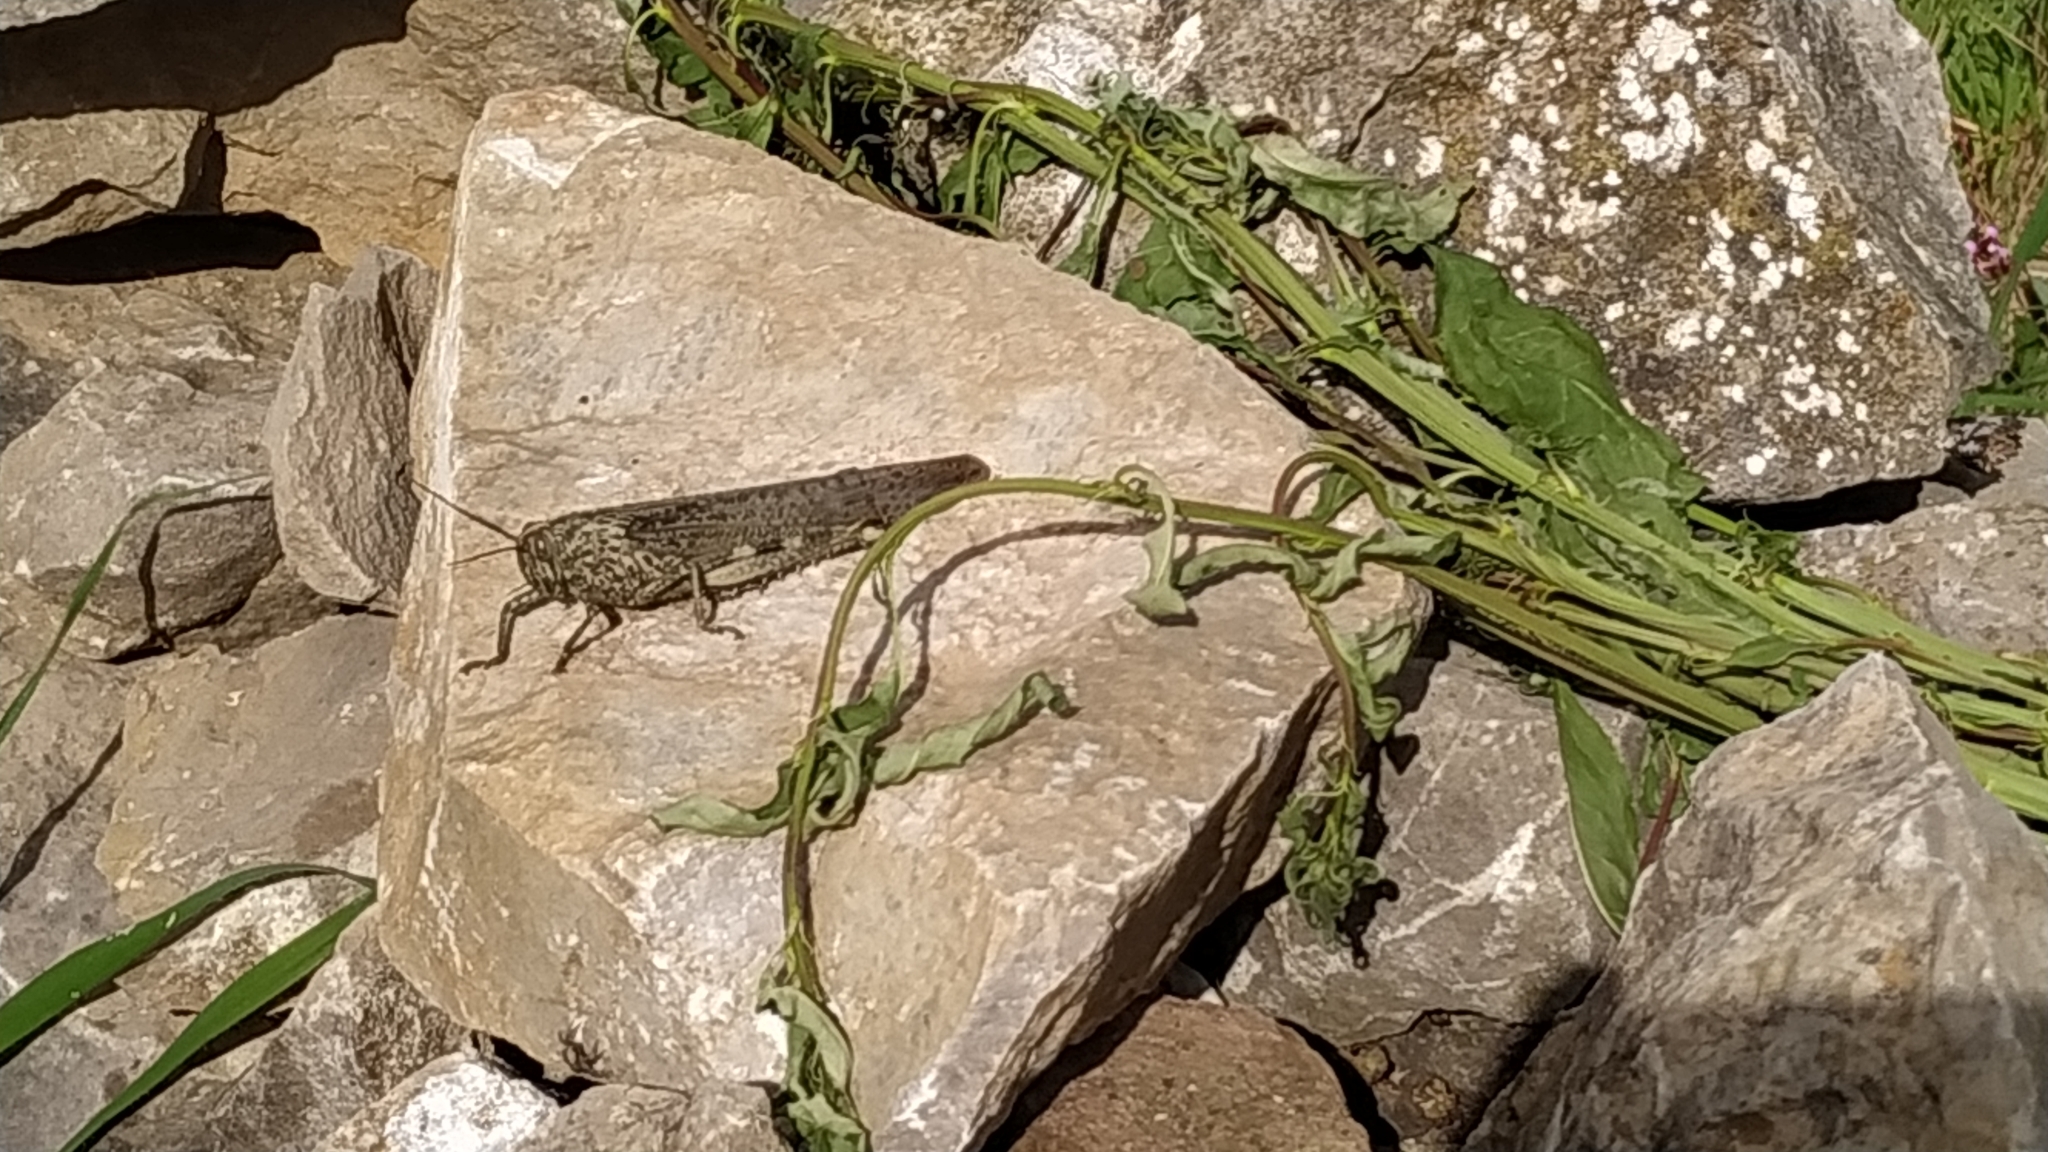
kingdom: Animalia
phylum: Arthropoda
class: Insecta
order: Orthoptera
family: Acrididae
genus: Anacridium
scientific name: Anacridium aegyptium
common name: Egyptian grasshopper
